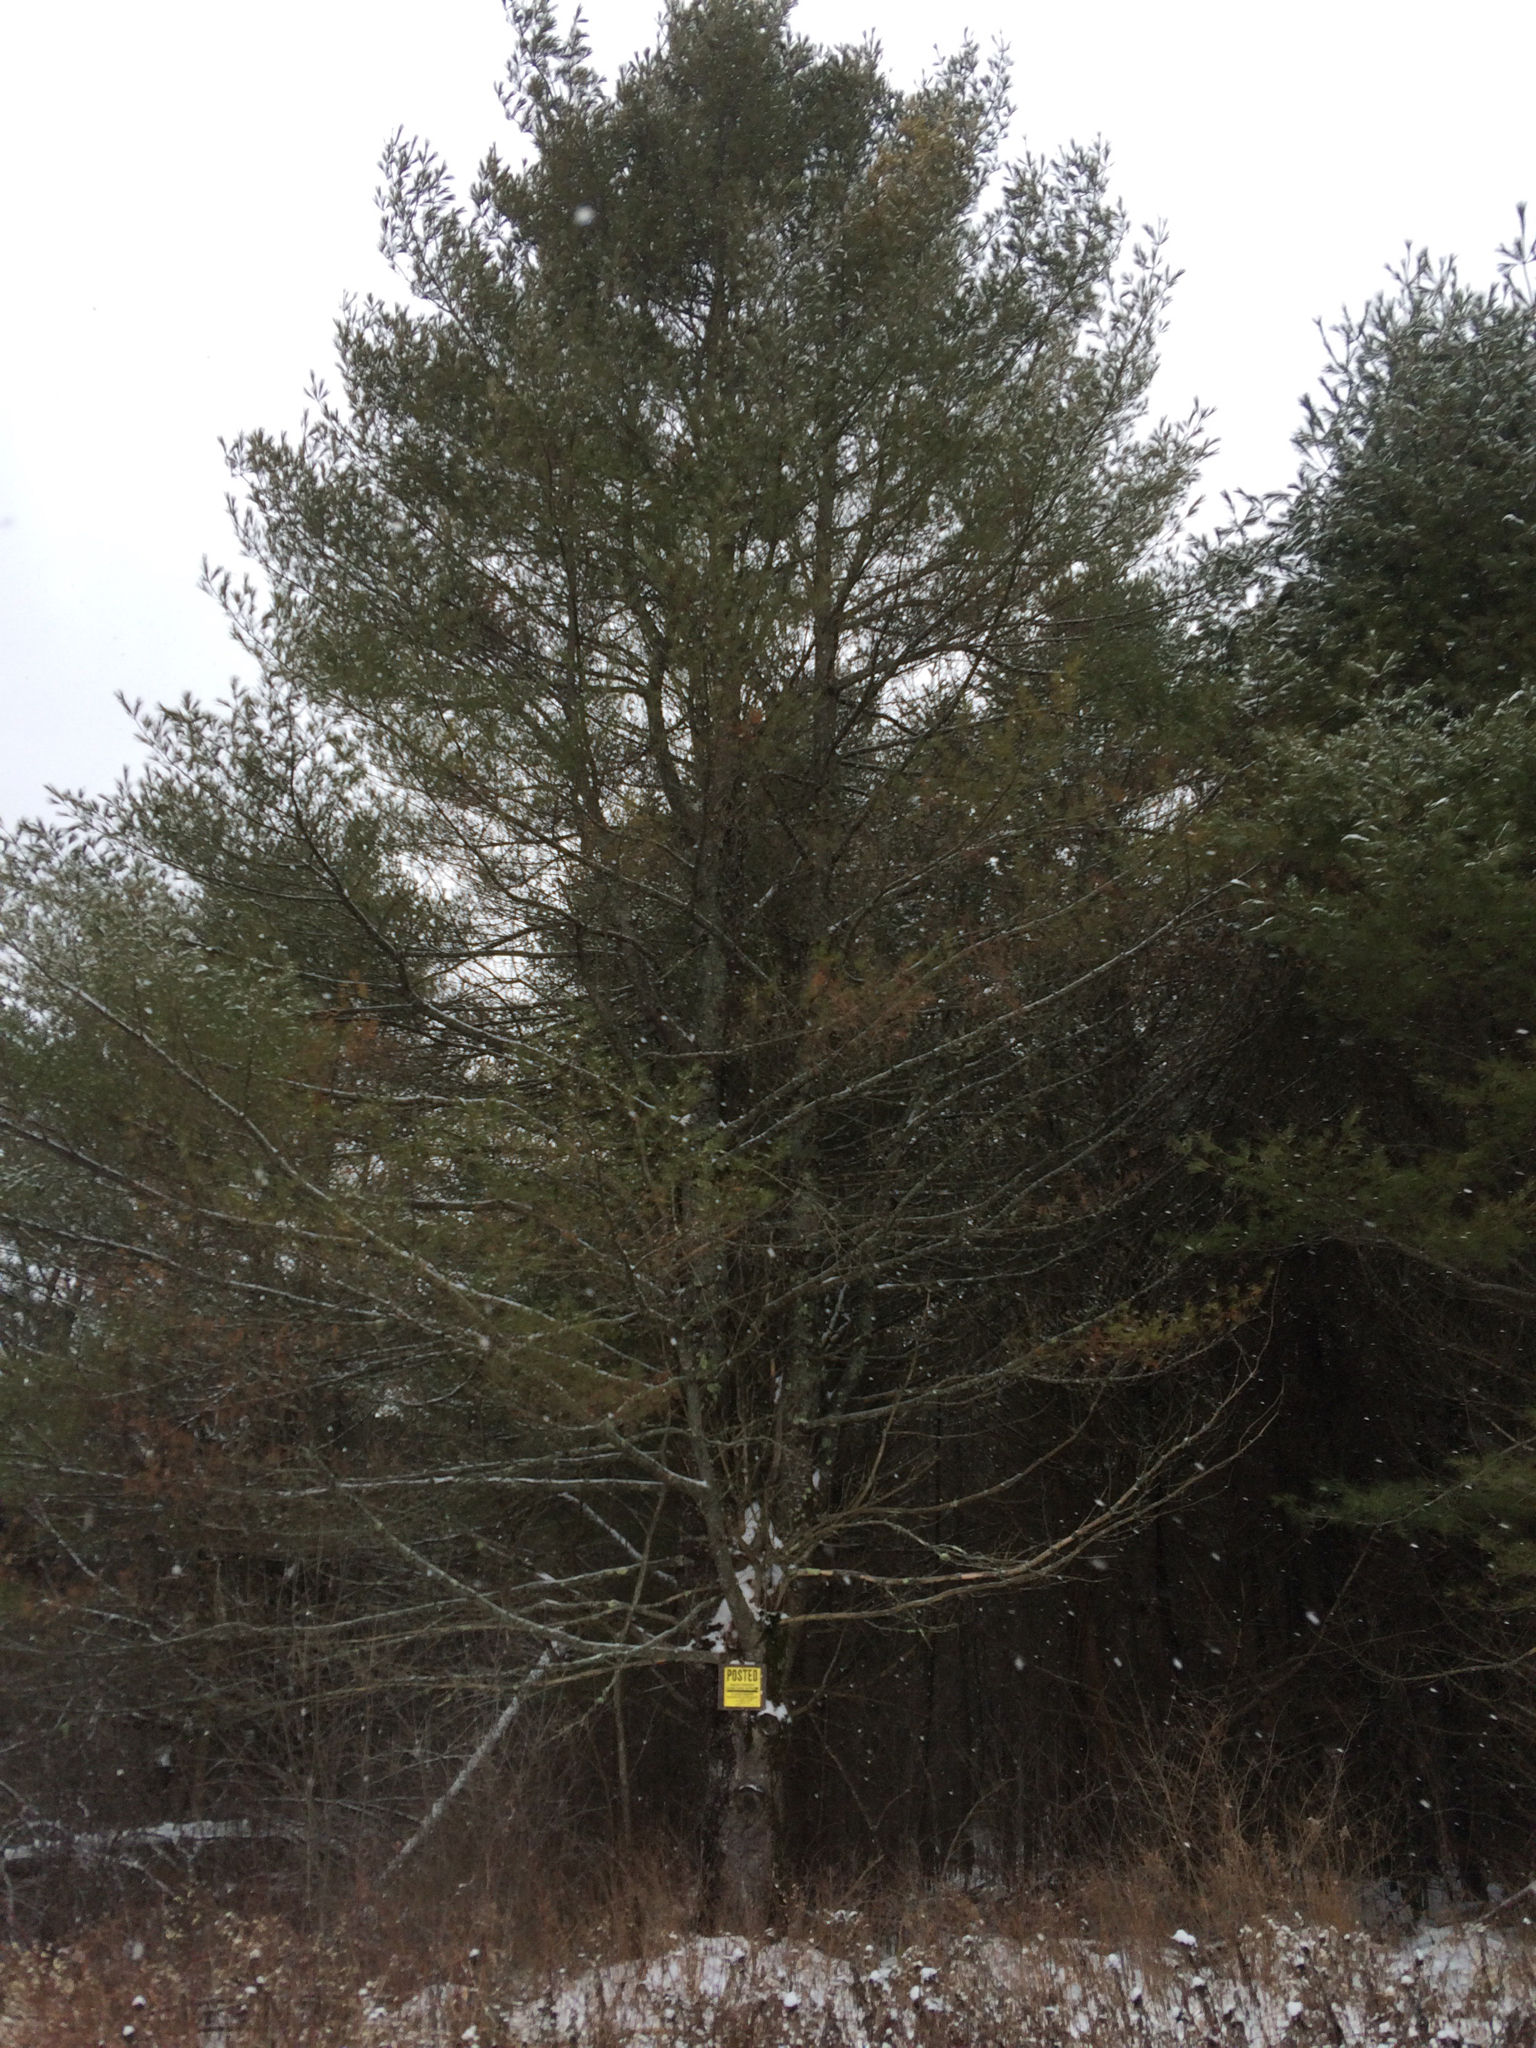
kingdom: Plantae
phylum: Tracheophyta
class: Pinopsida
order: Pinales
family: Pinaceae
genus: Pinus
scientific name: Pinus strobus
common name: Weymouth pine
